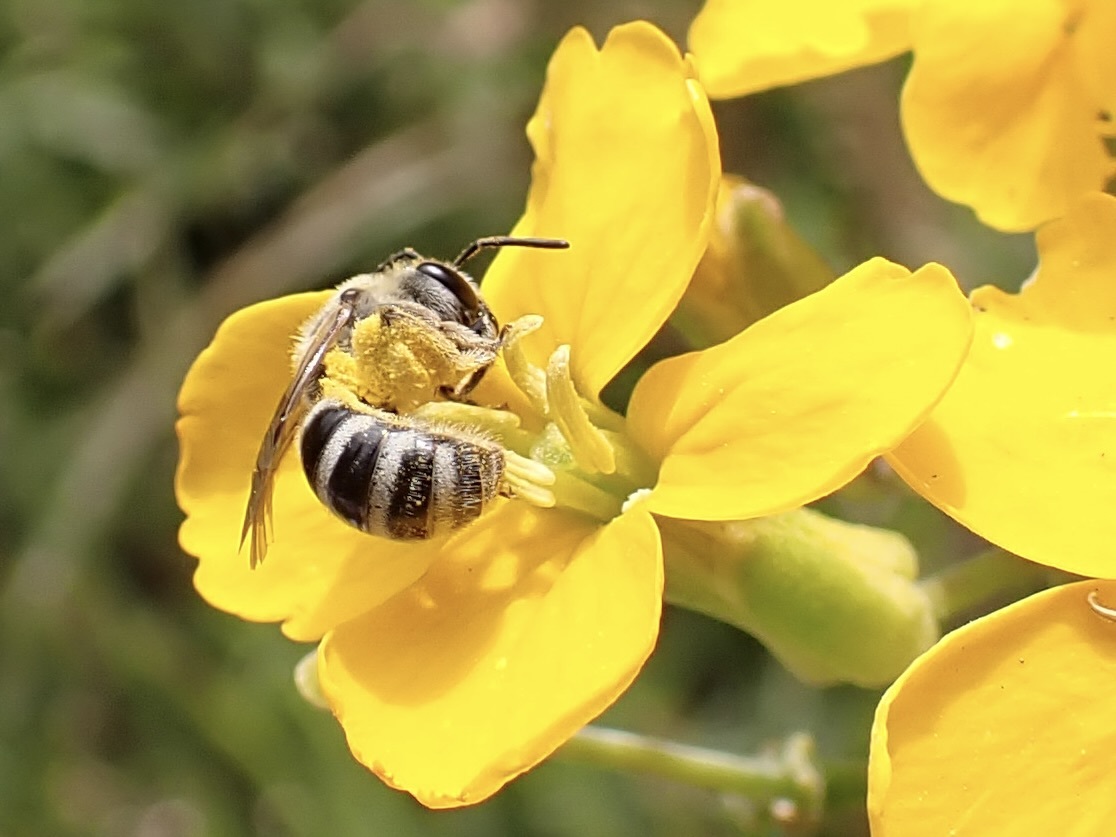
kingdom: Animalia
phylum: Arthropoda
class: Insecta
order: Hymenoptera
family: Halictidae
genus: Lasioglossum
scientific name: Lasioglossum sisymbrii
